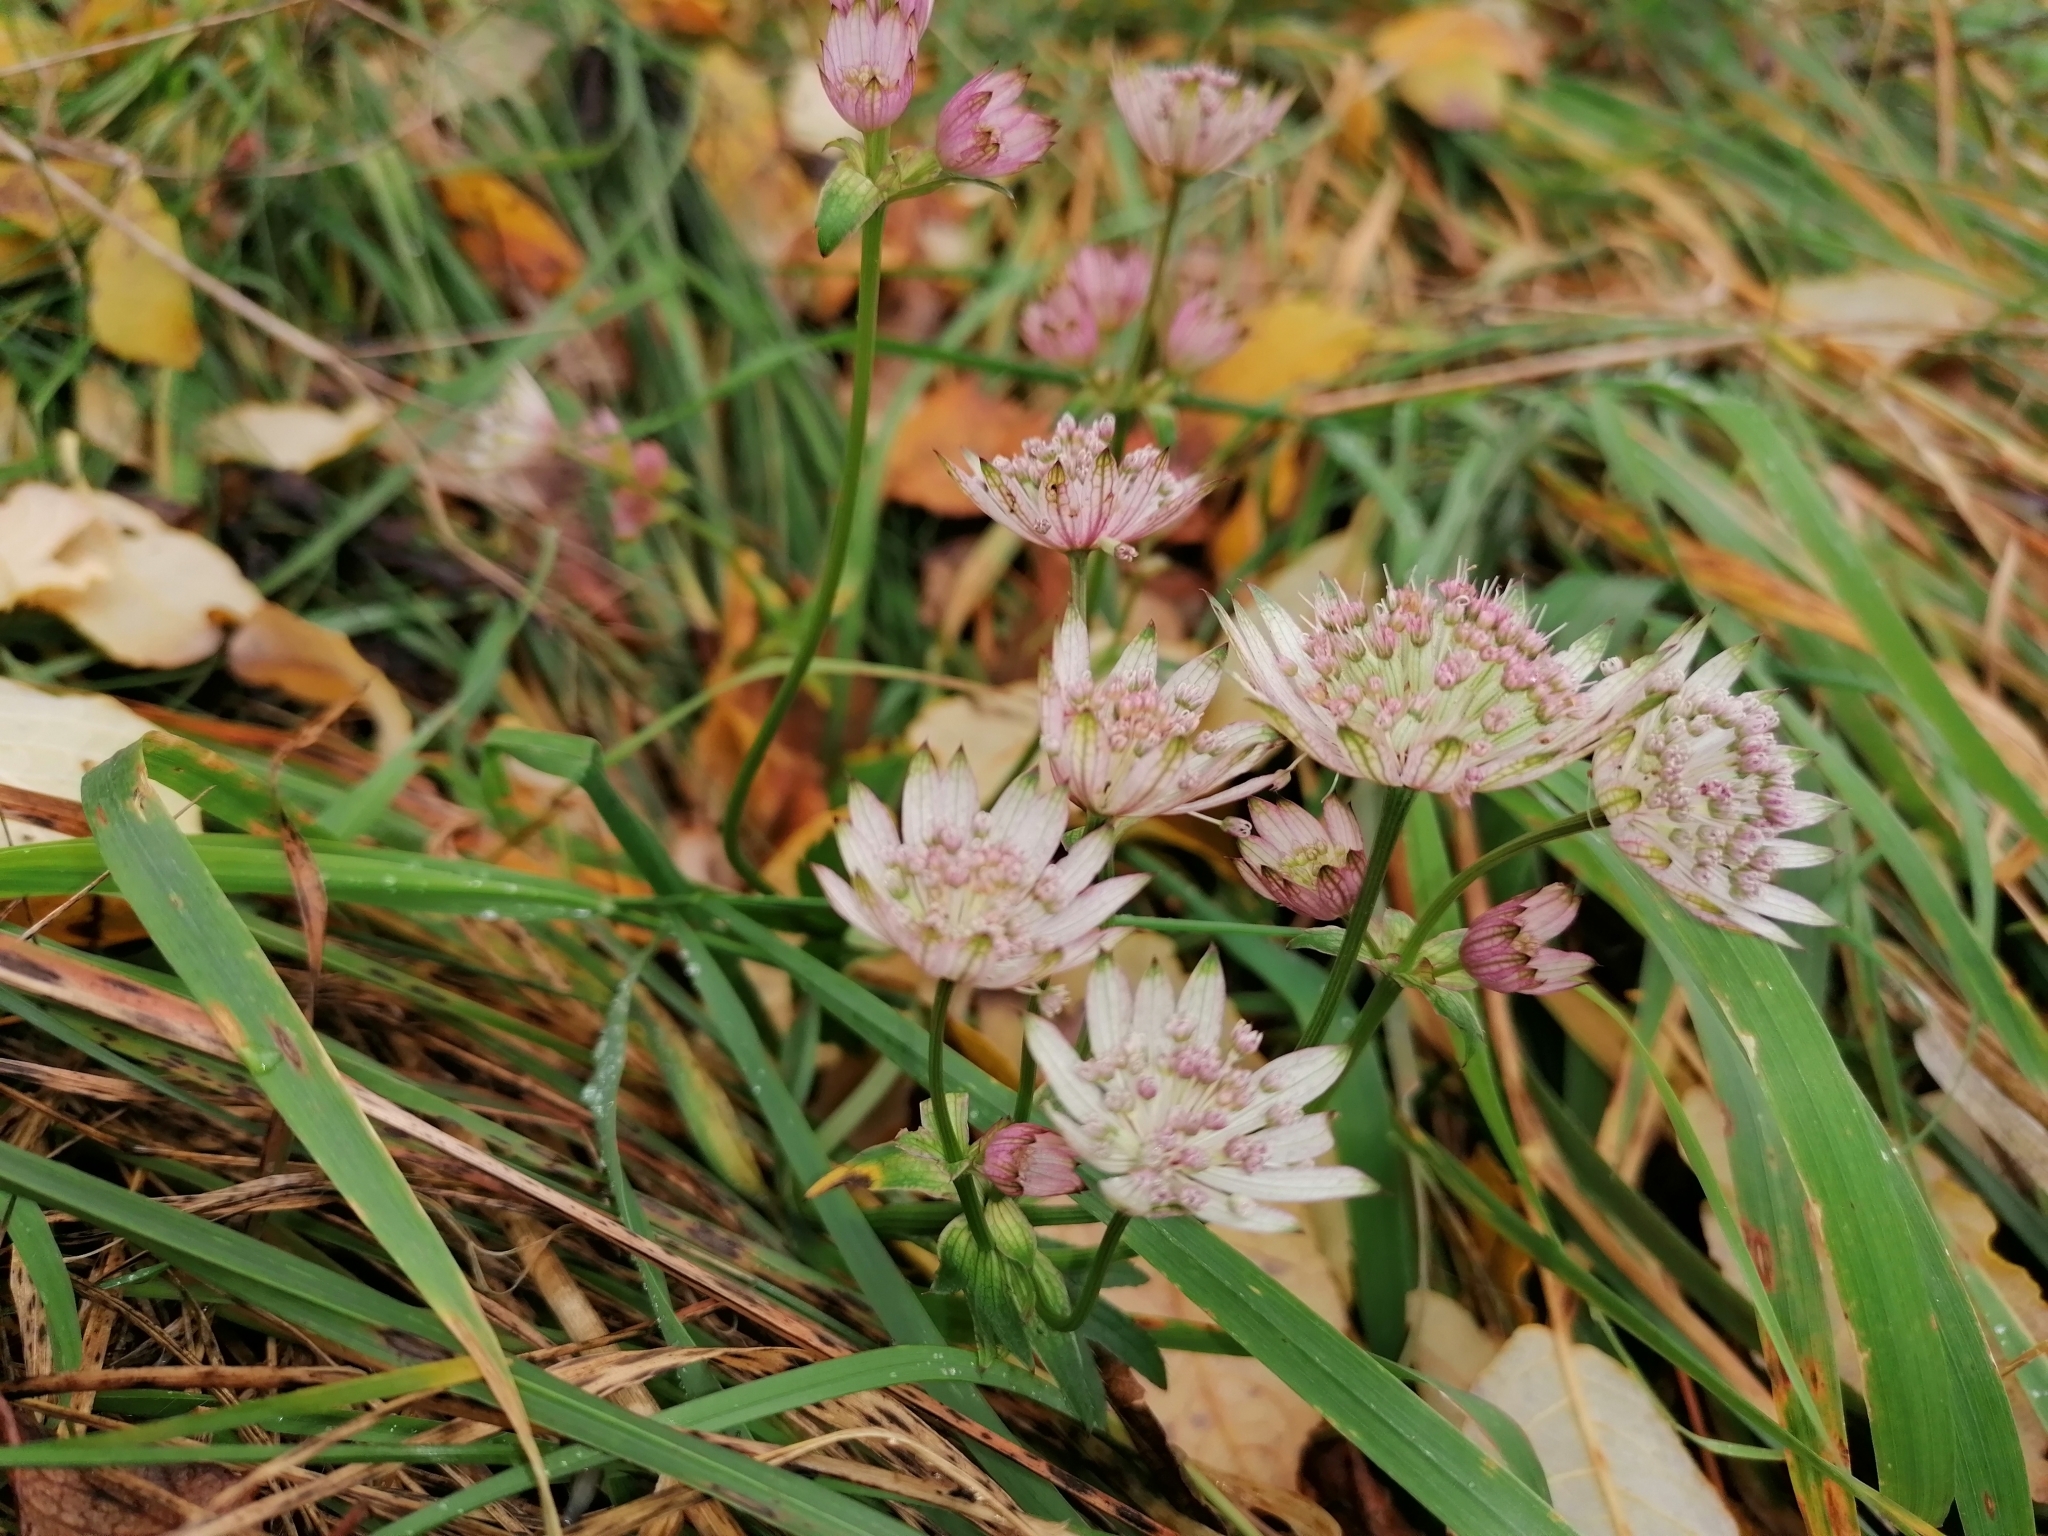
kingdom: Plantae
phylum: Tracheophyta
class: Magnoliopsida
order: Apiales
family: Apiaceae
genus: Astrantia
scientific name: Astrantia major
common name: Greater masterwort
